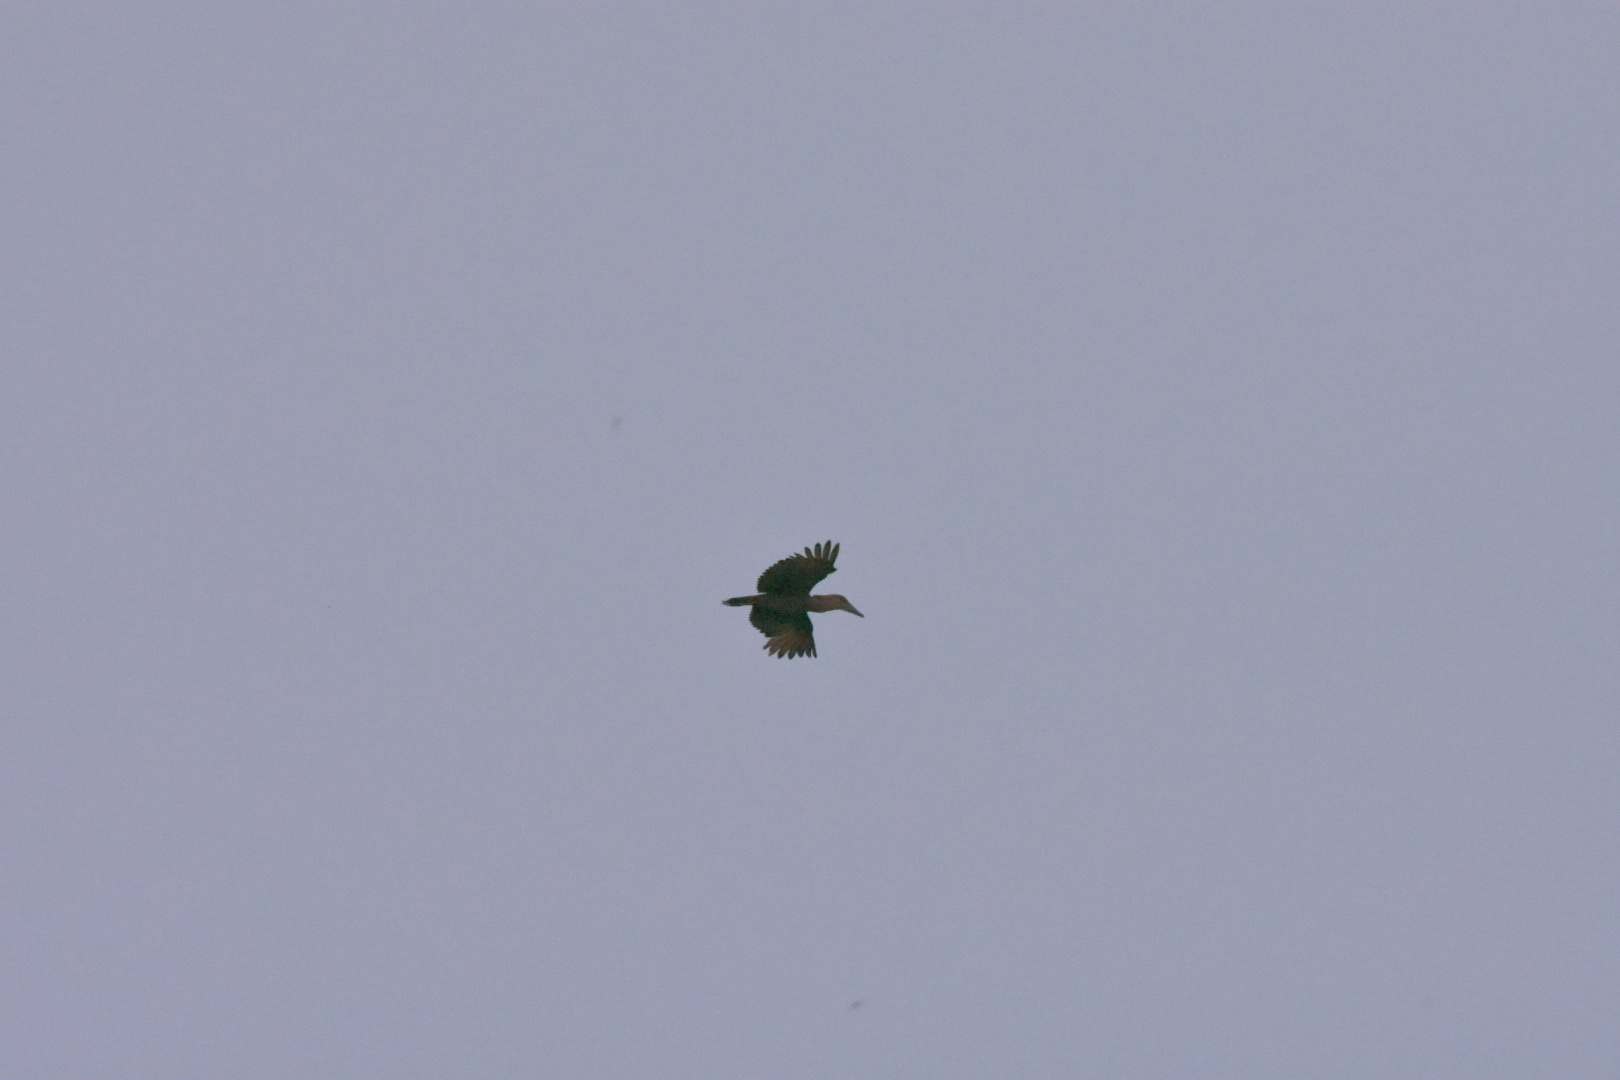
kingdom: Animalia
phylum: Chordata
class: Aves
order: Pelecaniformes
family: Scopidae
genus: Scopus
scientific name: Scopus umbretta
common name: Hamerkop
